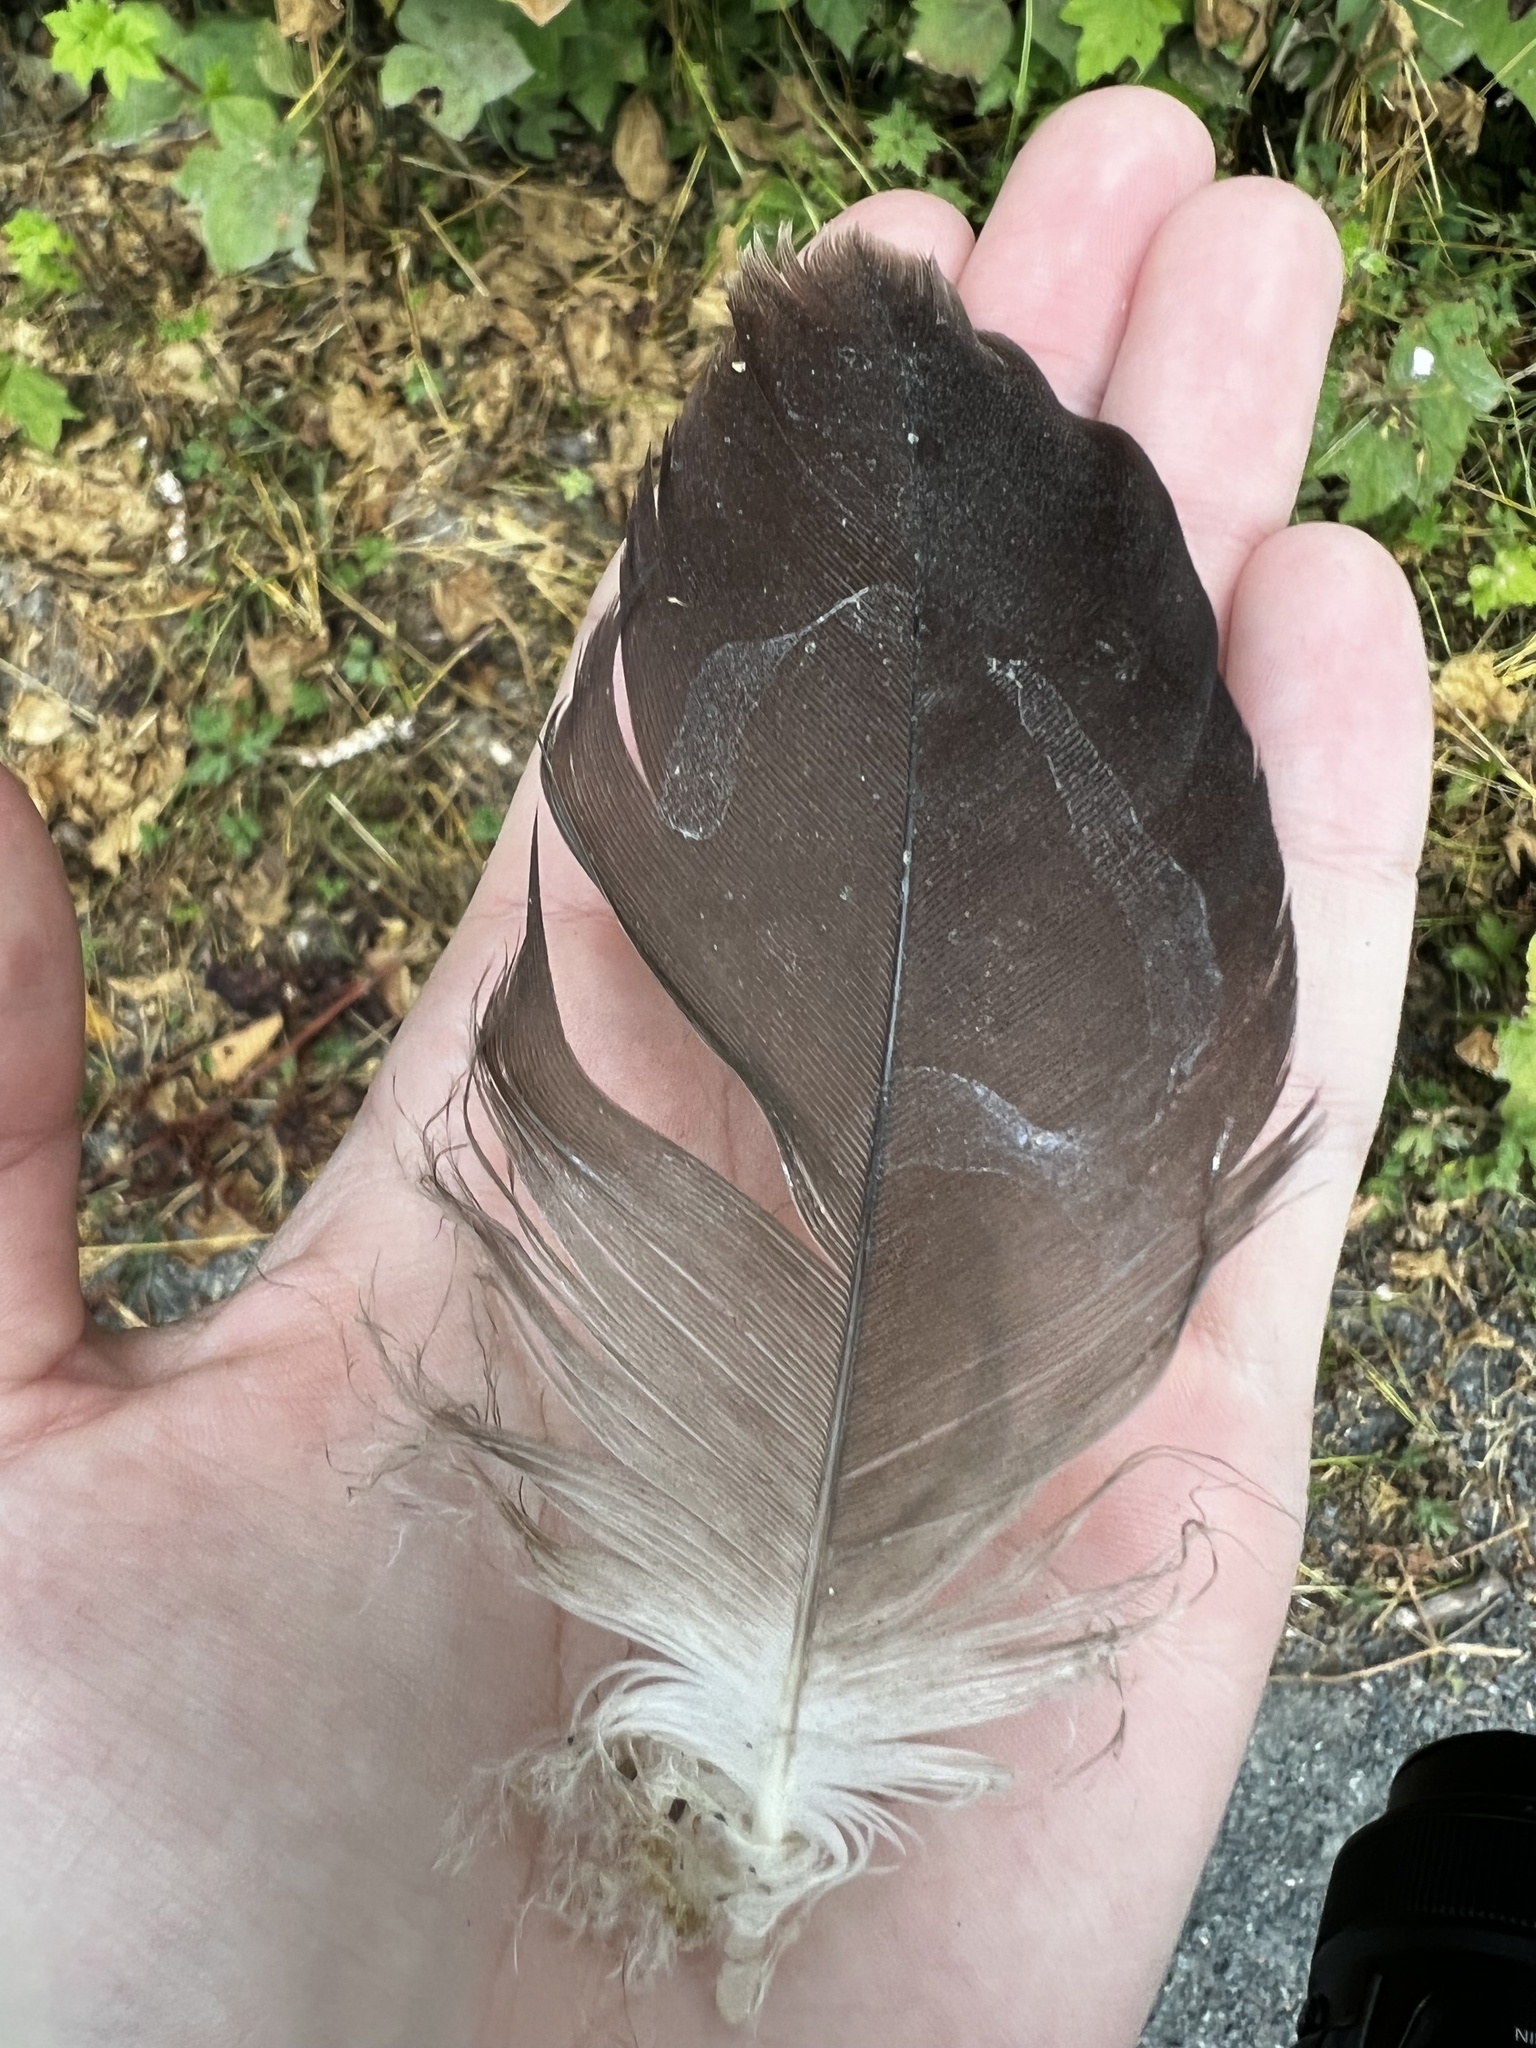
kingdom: Animalia
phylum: Chordata
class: Aves
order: Accipitriformes
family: Accipitridae
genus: Haliaeetus
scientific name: Haliaeetus leucocephalus
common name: Bald eagle
